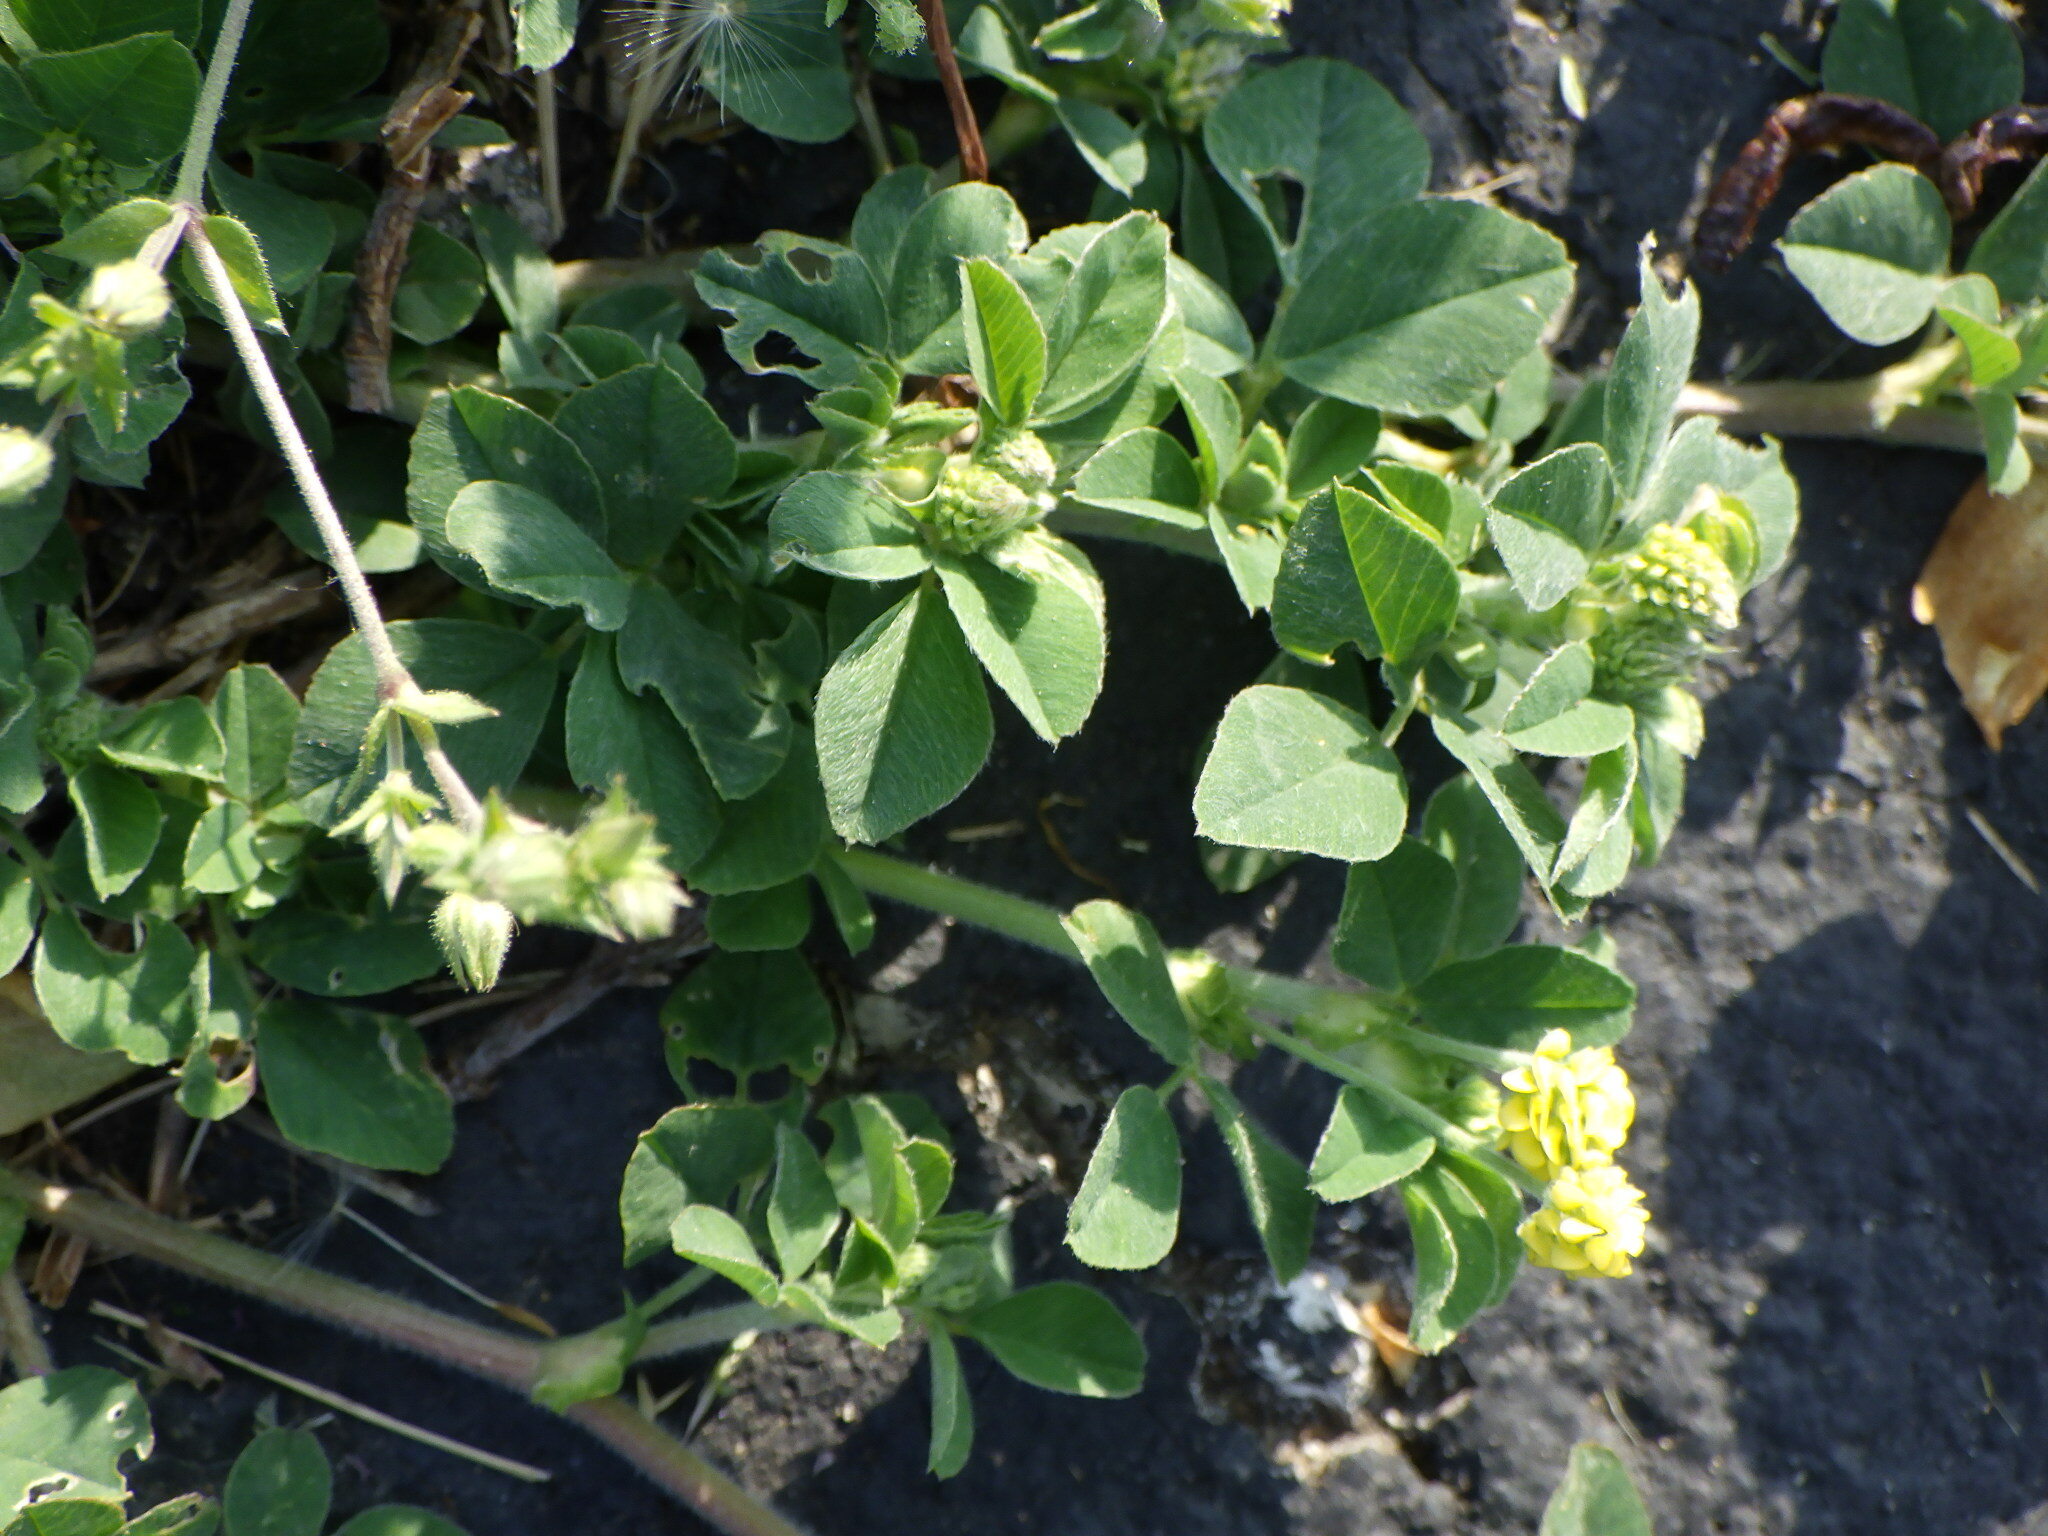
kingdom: Plantae
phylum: Tracheophyta
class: Magnoliopsida
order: Fabales
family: Fabaceae
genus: Medicago
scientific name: Medicago lupulina
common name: Black medick
